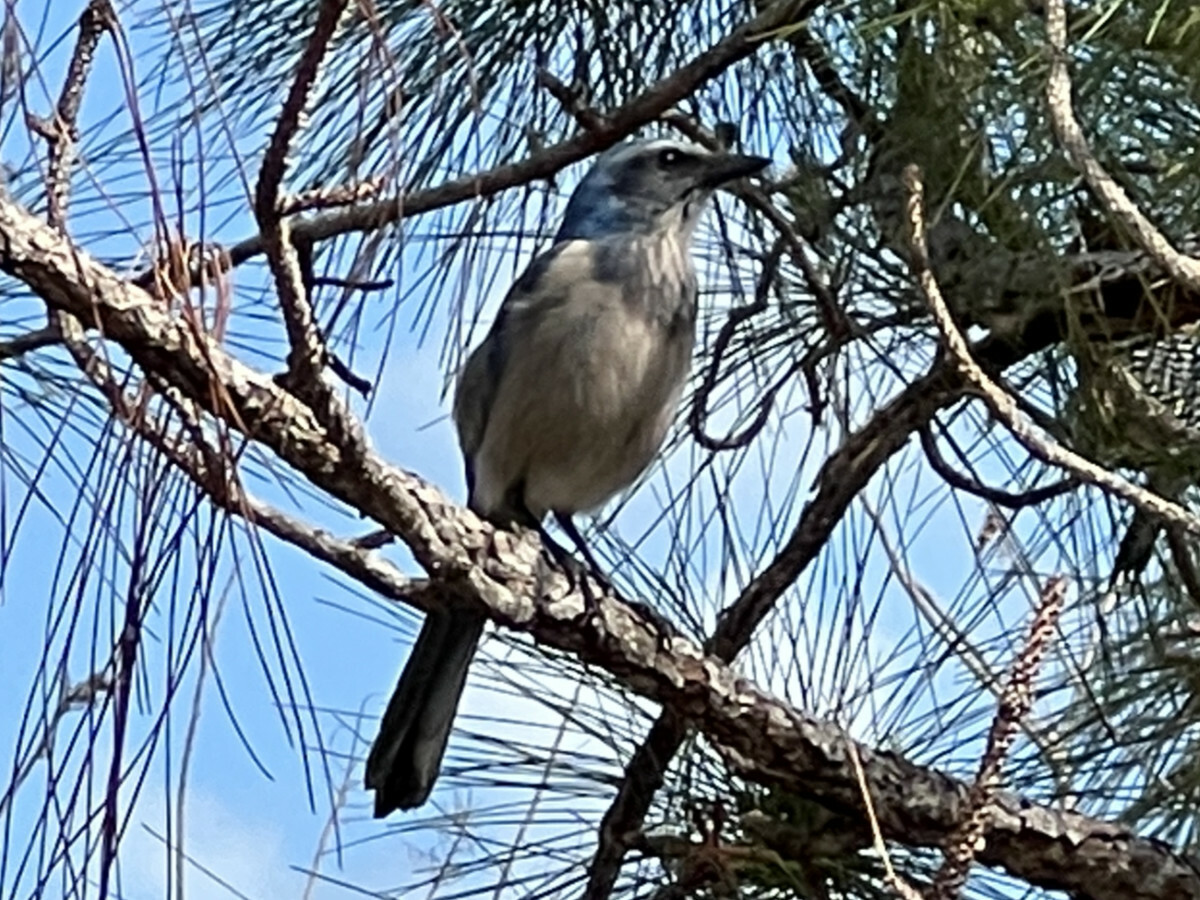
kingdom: Animalia
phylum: Chordata
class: Aves
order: Passeriformes
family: Corvidae
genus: Aphelocoma
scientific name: Aphelocoma coerulescens
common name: Florida scrub jay
